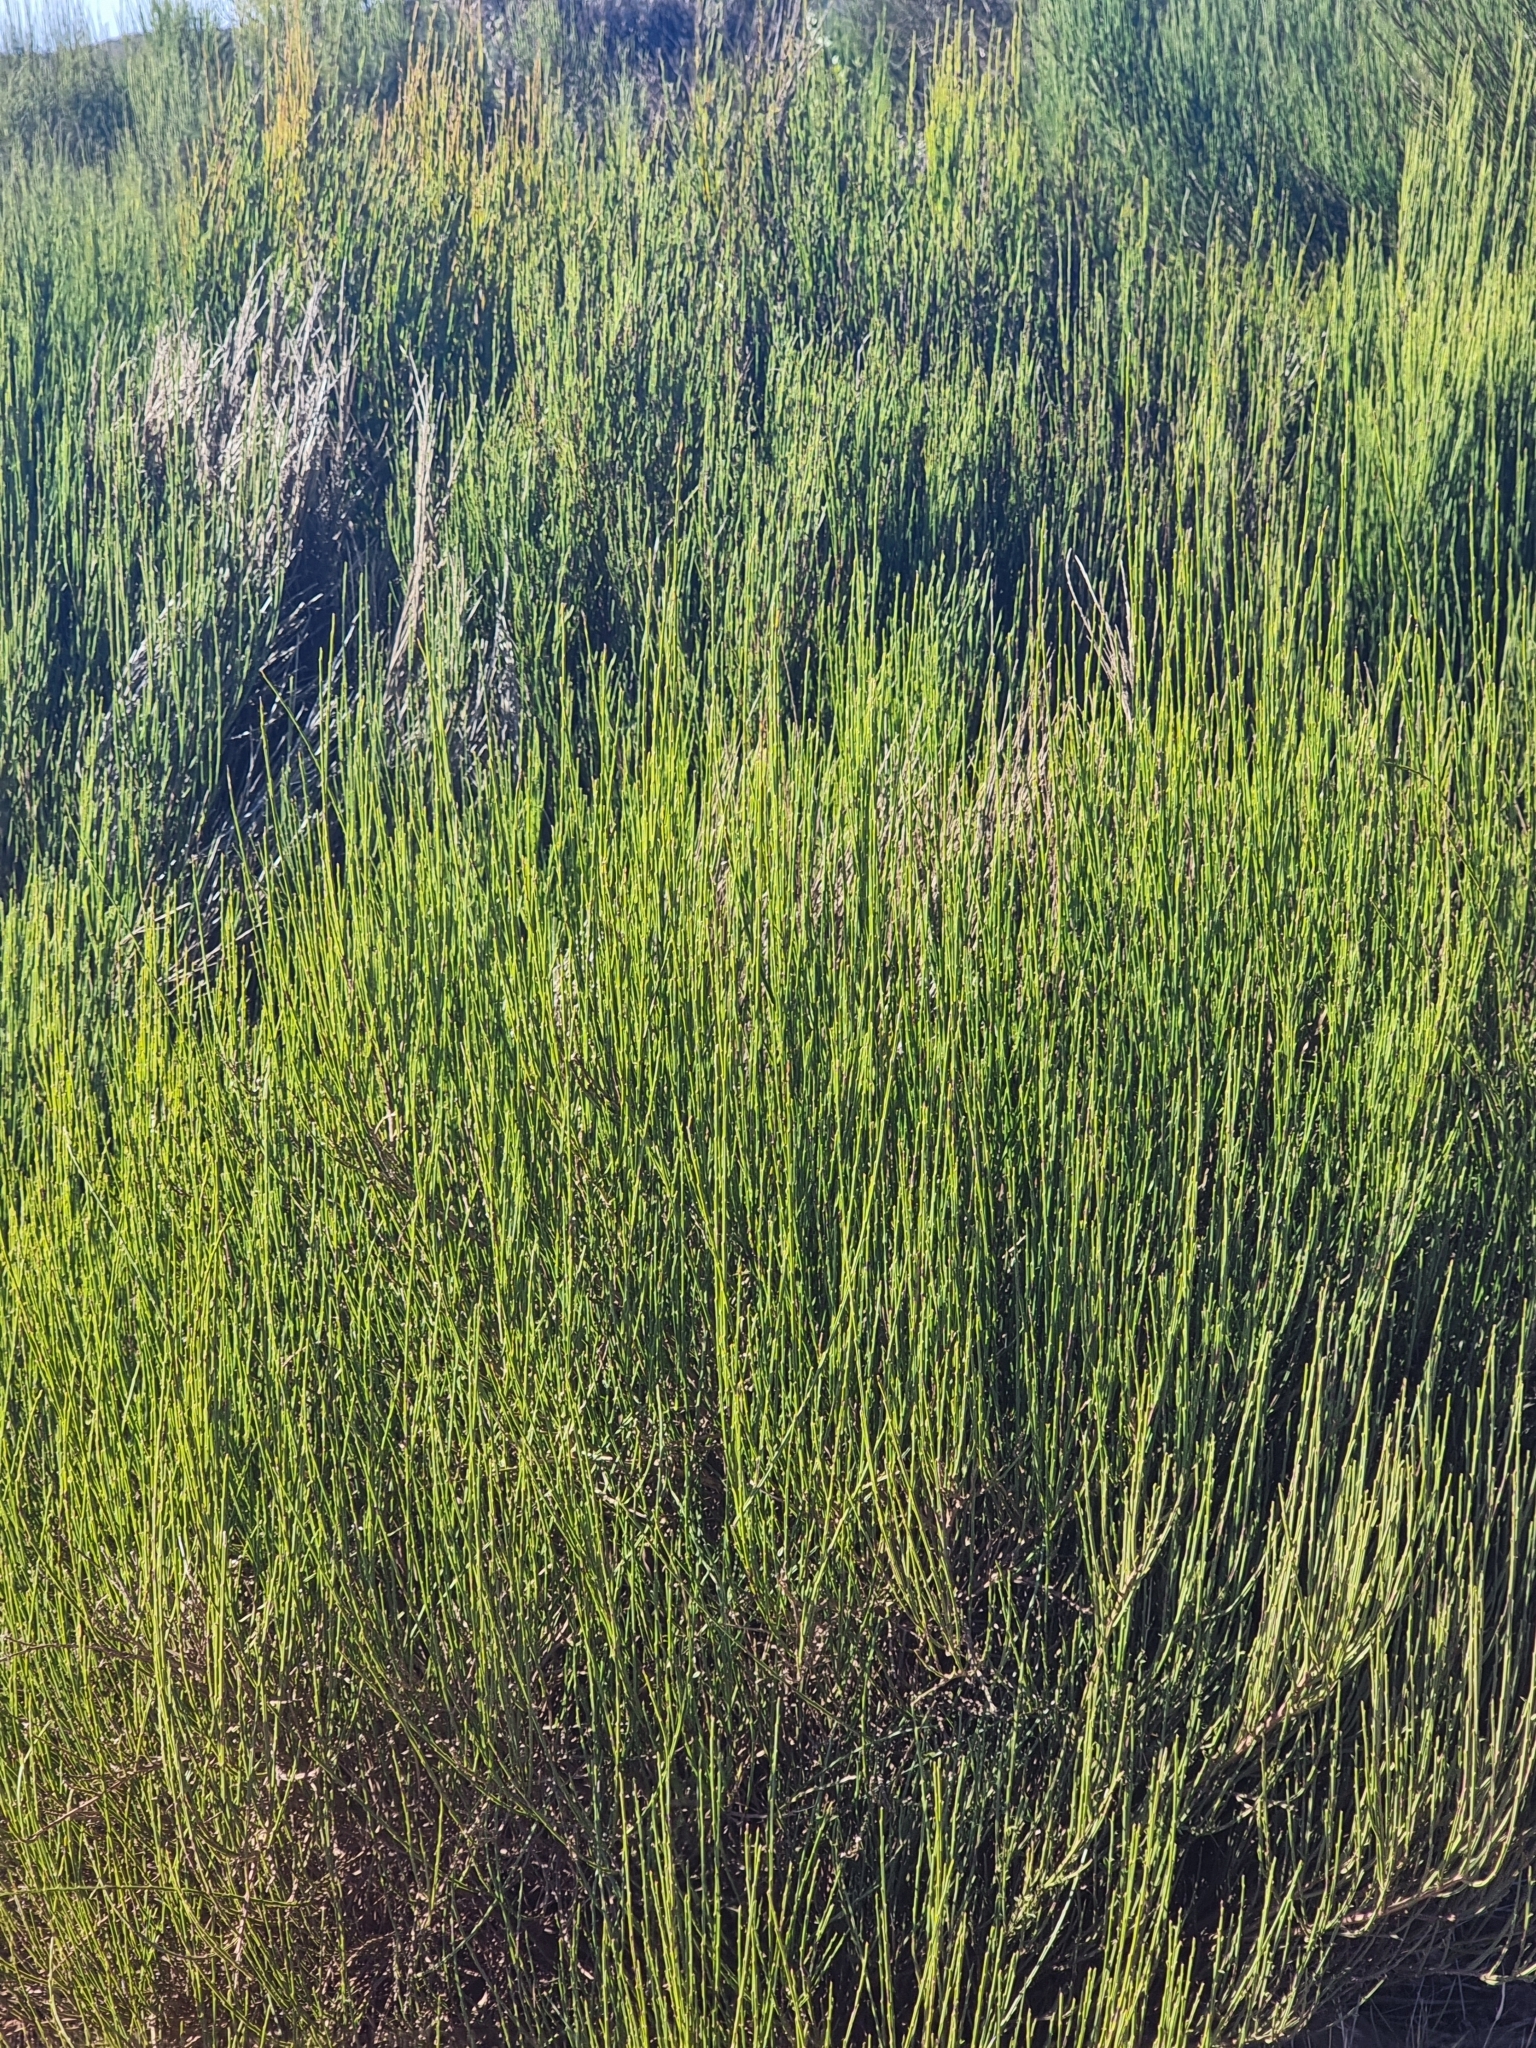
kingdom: Plantae
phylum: Tracheophyta
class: Magnoliopsida
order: Fabales
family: Fabaceae
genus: Cytisus
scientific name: Cytisus scoparius
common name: Scotch broom
